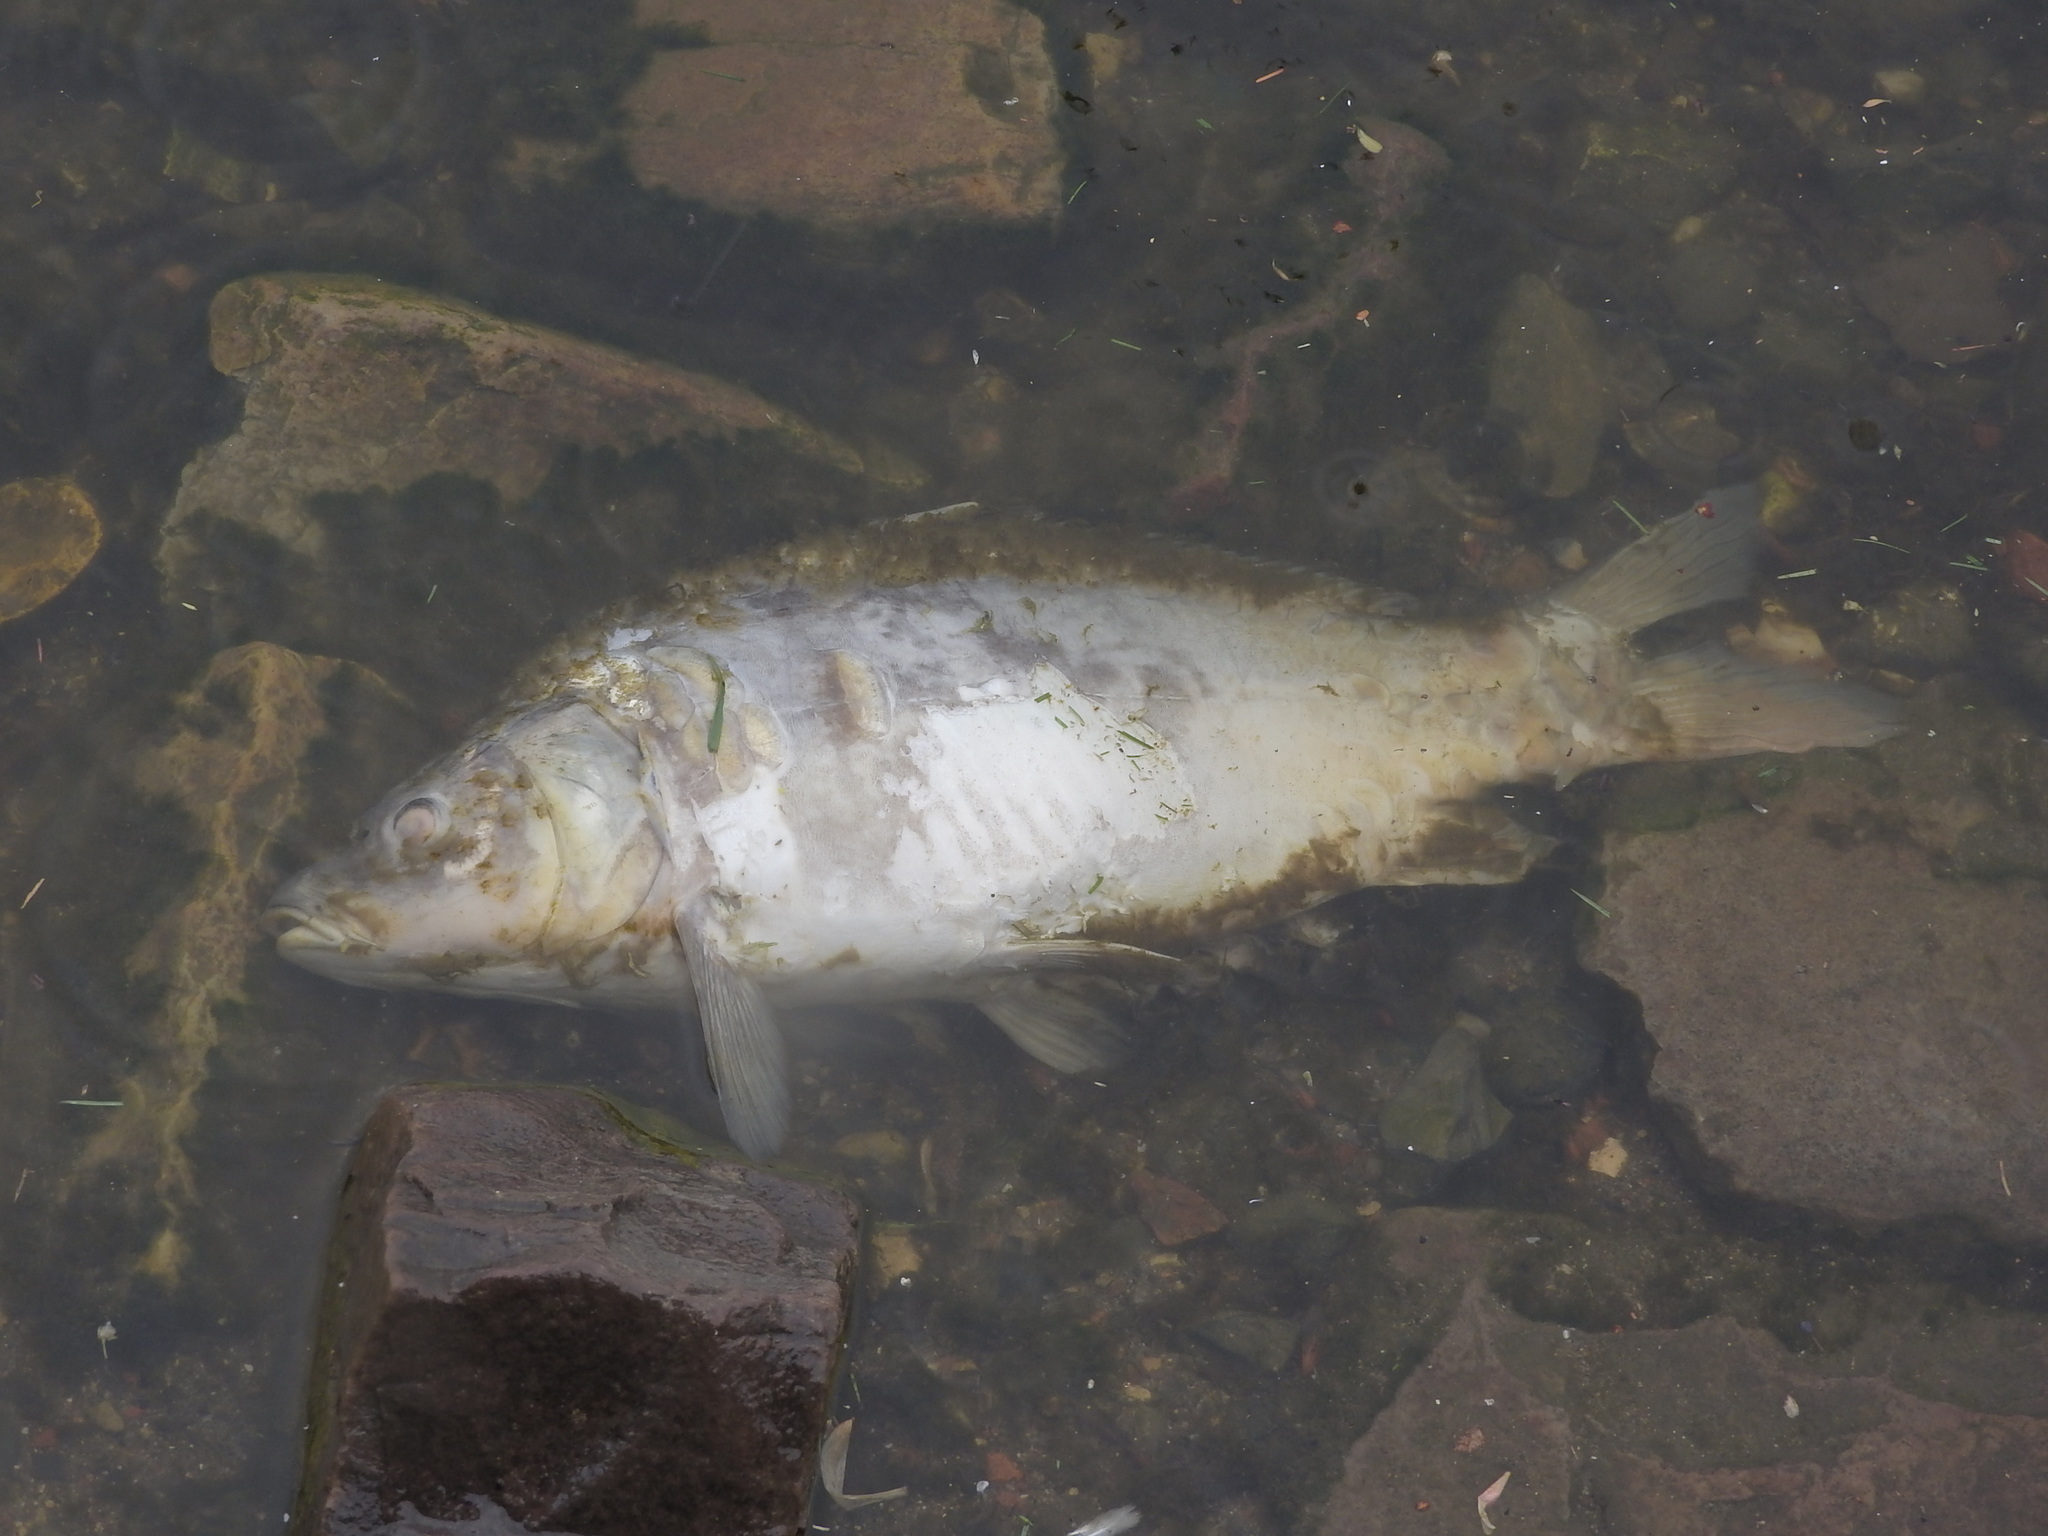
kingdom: Animalia
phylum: Chordata
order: Cypriniformes
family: Cyprinidae
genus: Cyprinus
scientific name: Cyprinus carpio
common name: Common carp
